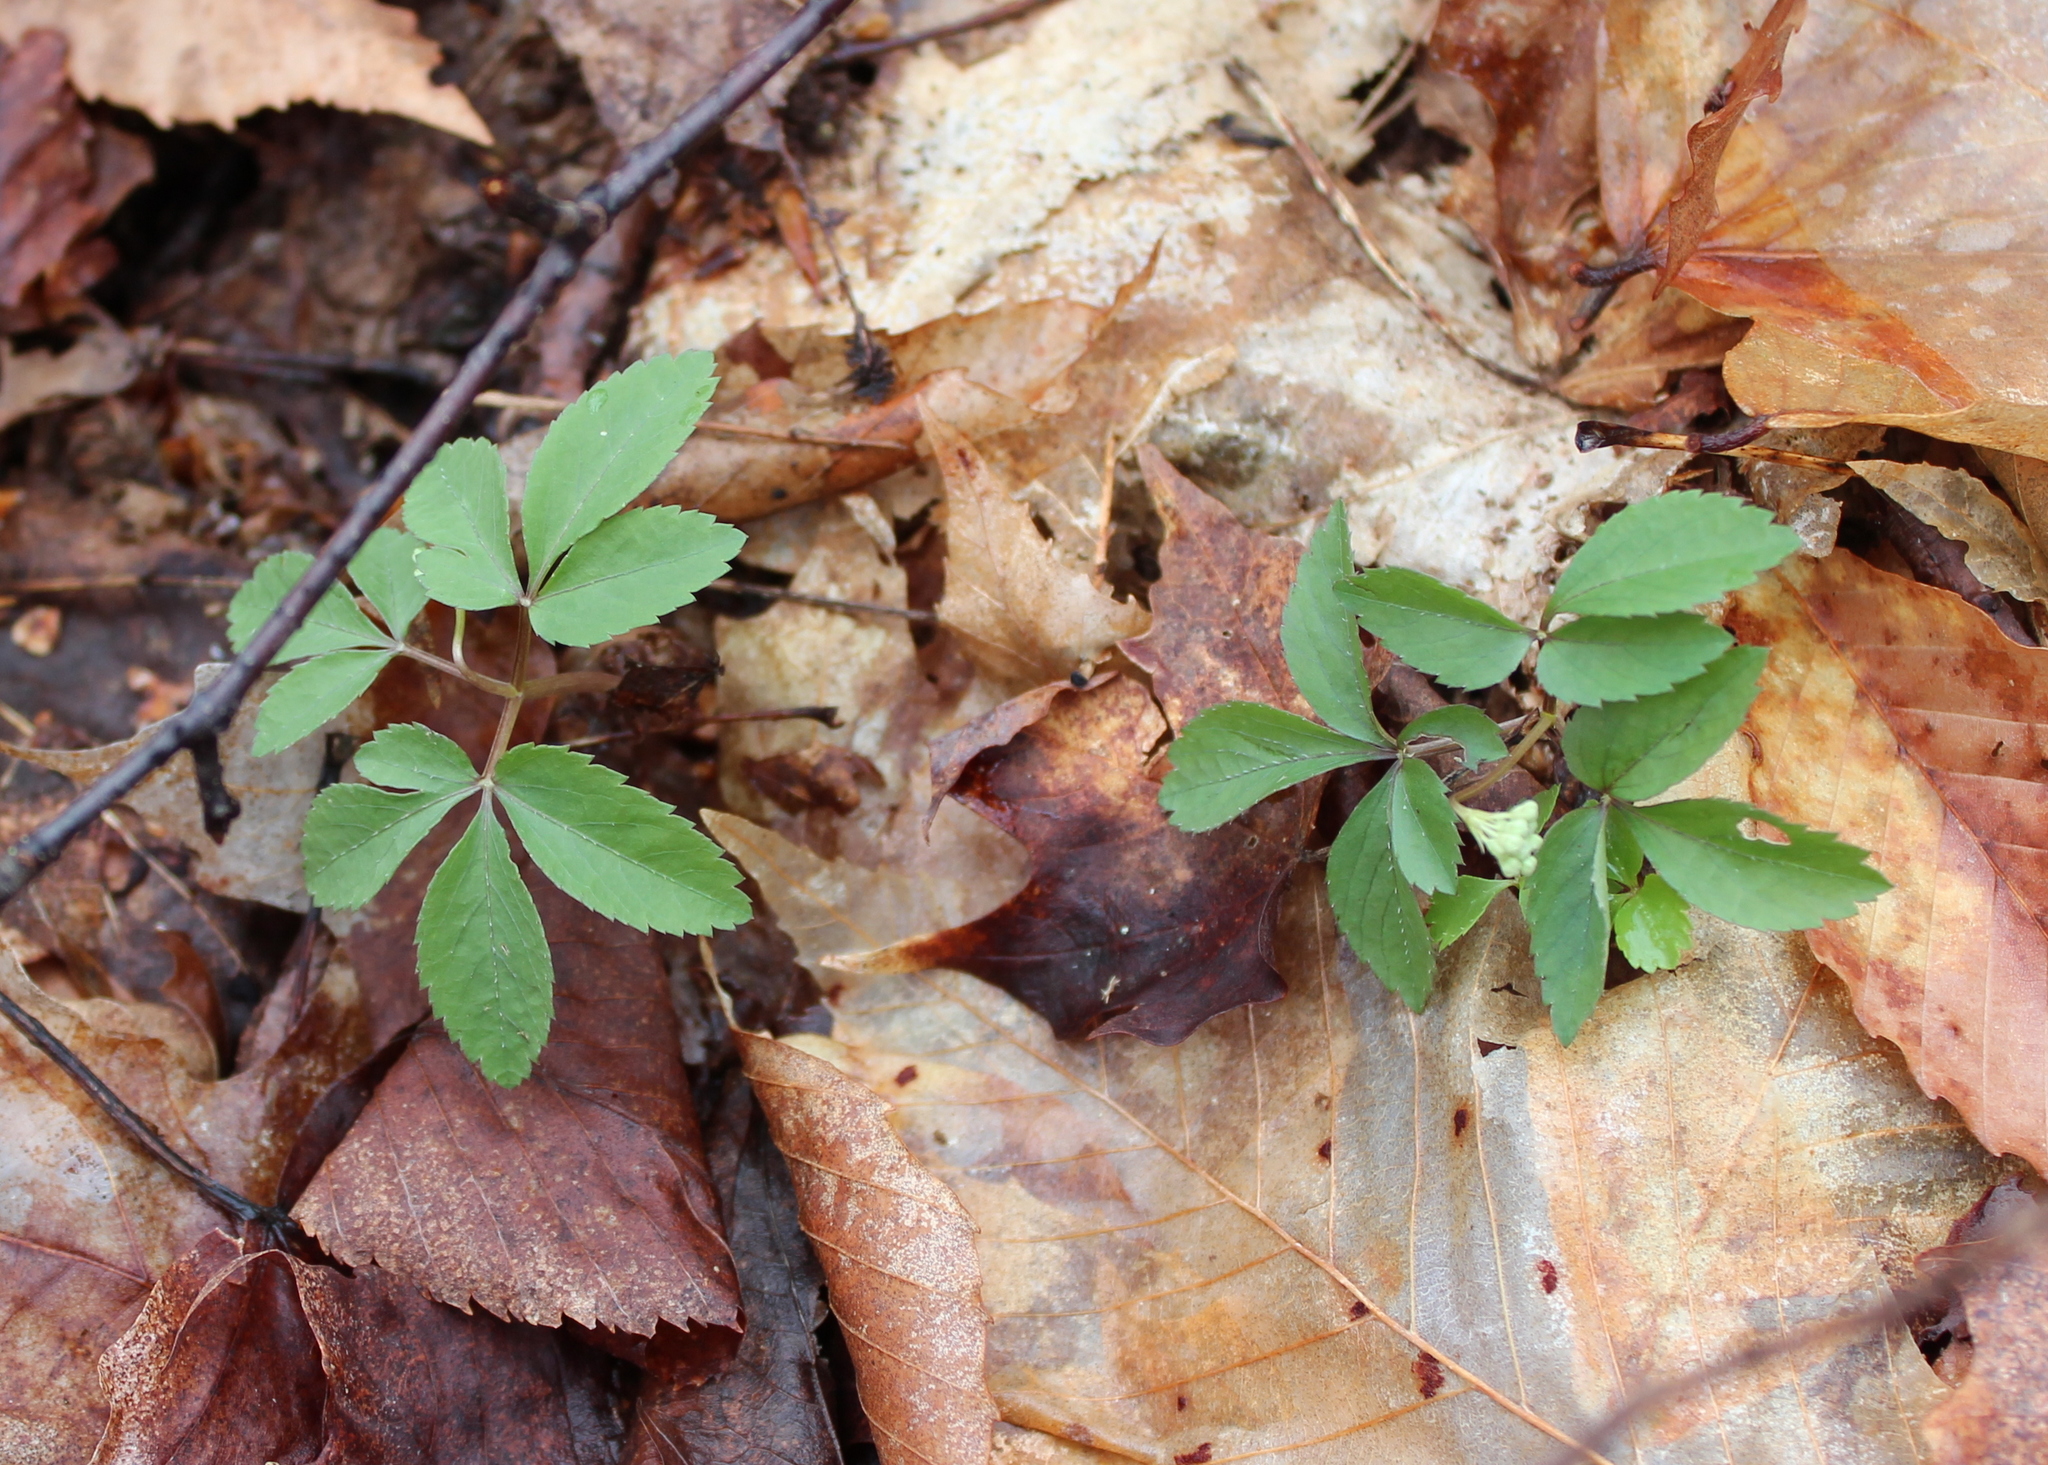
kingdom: Plantae
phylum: Tracheophyta
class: Magnoliopsida
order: Apiales
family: Araliaceae
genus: Panax
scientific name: Panax trifolius
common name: Dwarf ginseng
